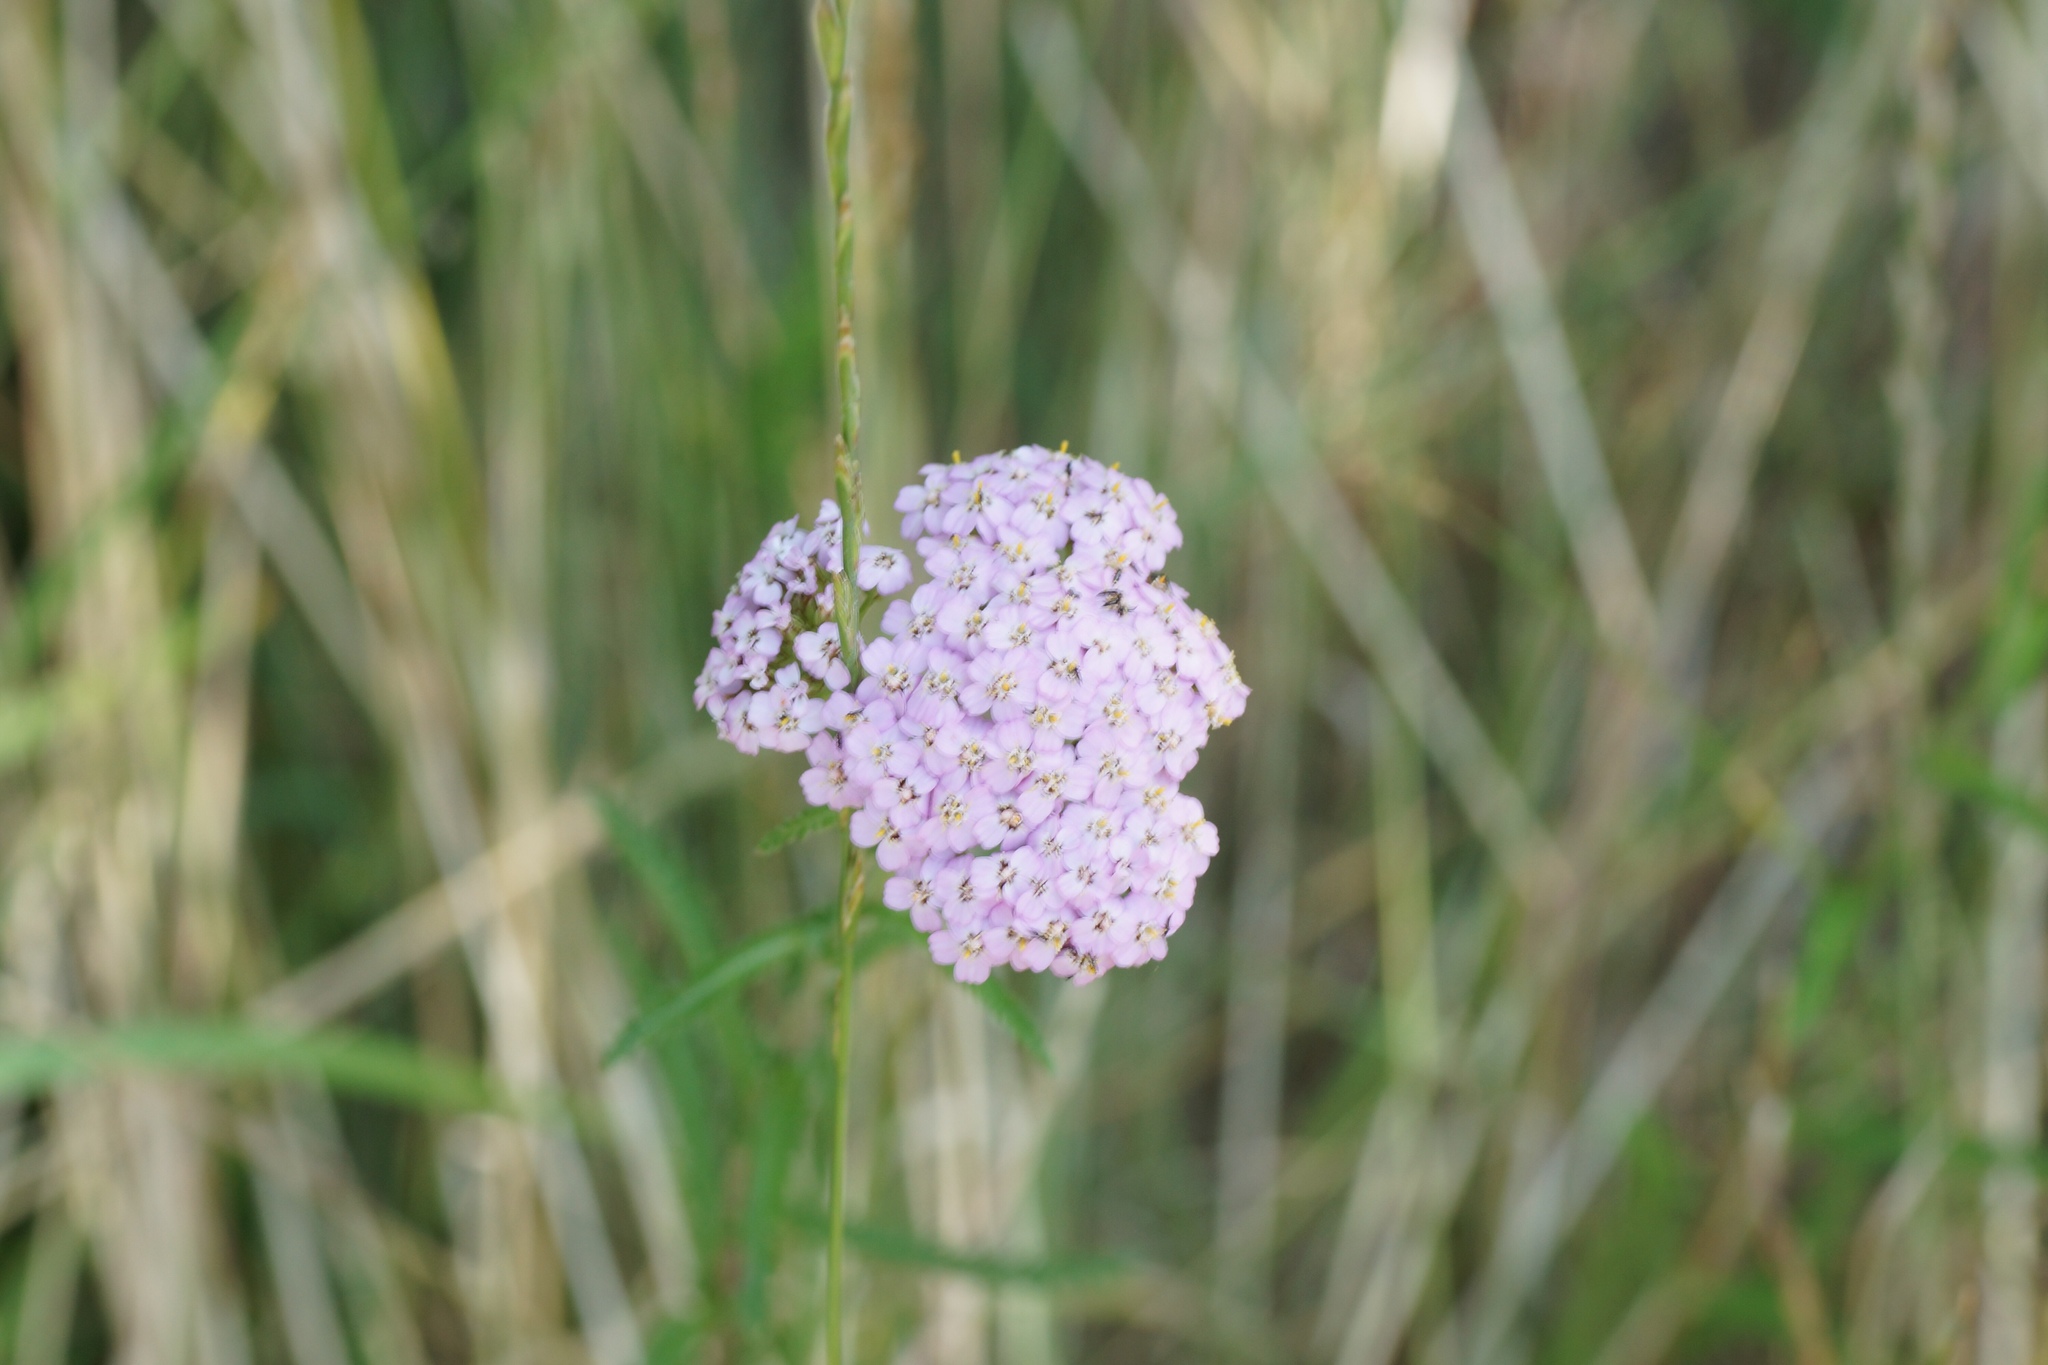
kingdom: Plantae
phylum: Tracheophyta
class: Magnoliopsida
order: Asterales
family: Asteraceae
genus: Achillea
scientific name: Achillea millefolium
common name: Yarrow
